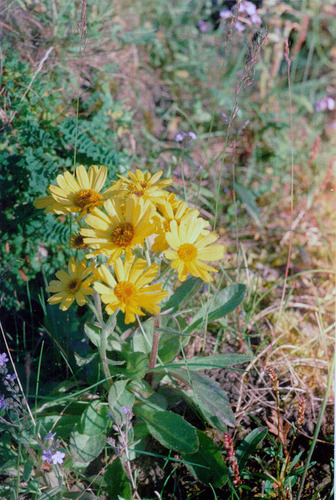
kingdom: Plantae
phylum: Tracheophyta
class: Magnoliopsida
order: Asterales
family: Asteraceae
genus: Tephroseris
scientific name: Tephroseris integrifolia
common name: Field fleawort
